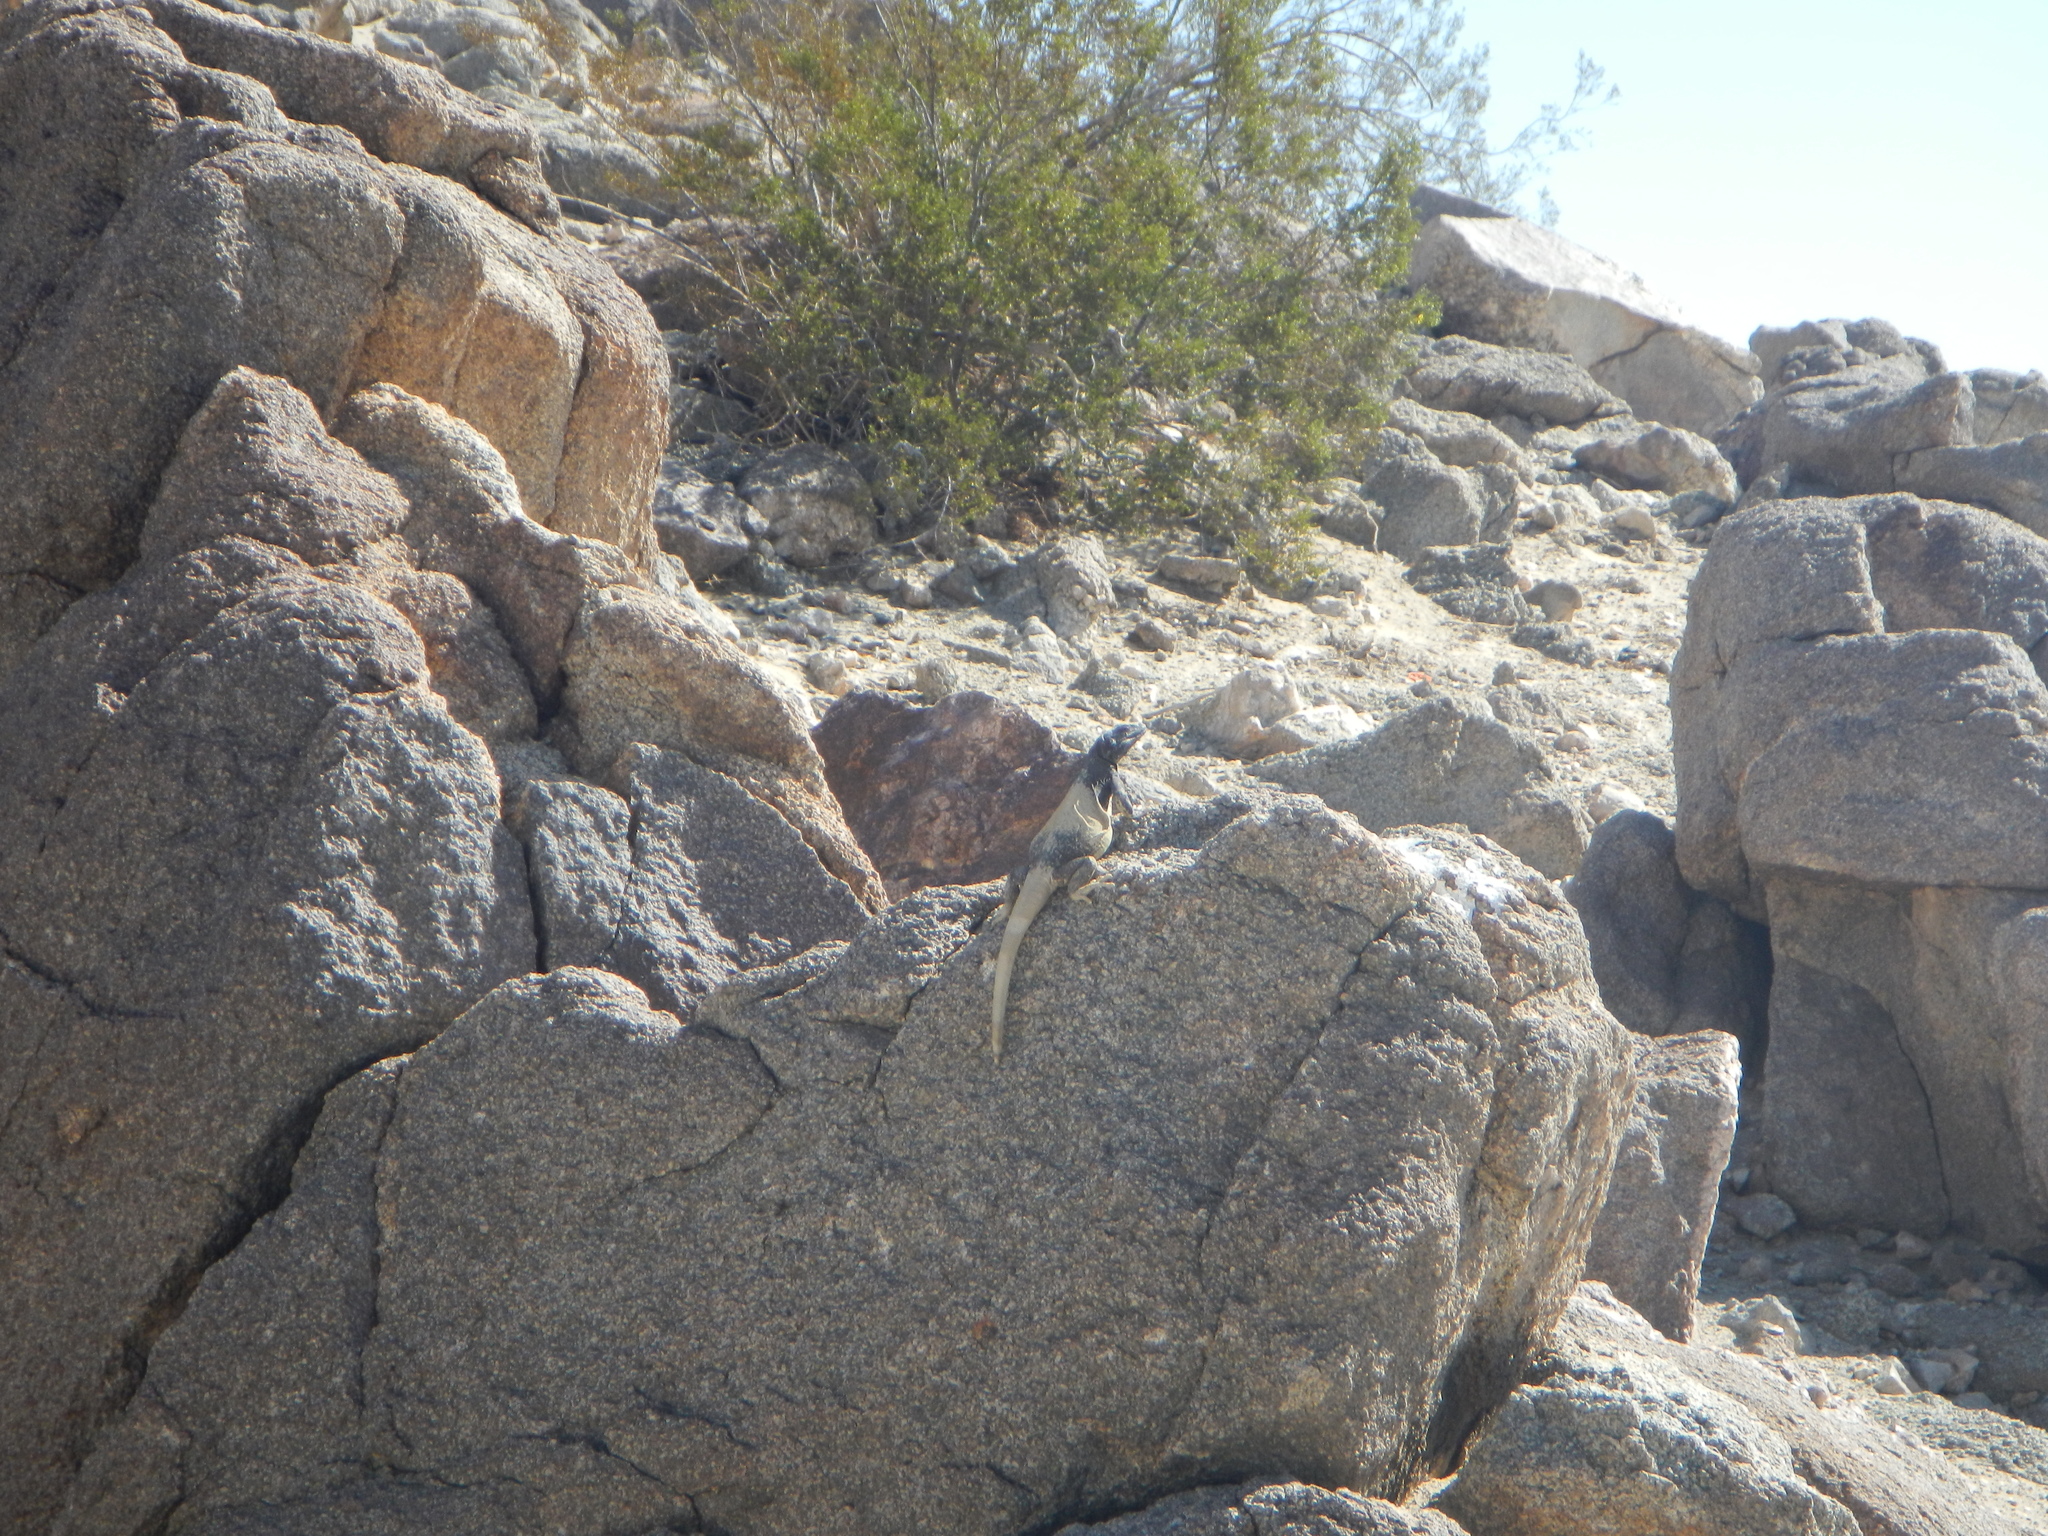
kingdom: Animalia
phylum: Chordata
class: Squamata
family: Iguanidae
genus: Sauromalus
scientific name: Sauromalus ater
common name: Northern chuckwalla
